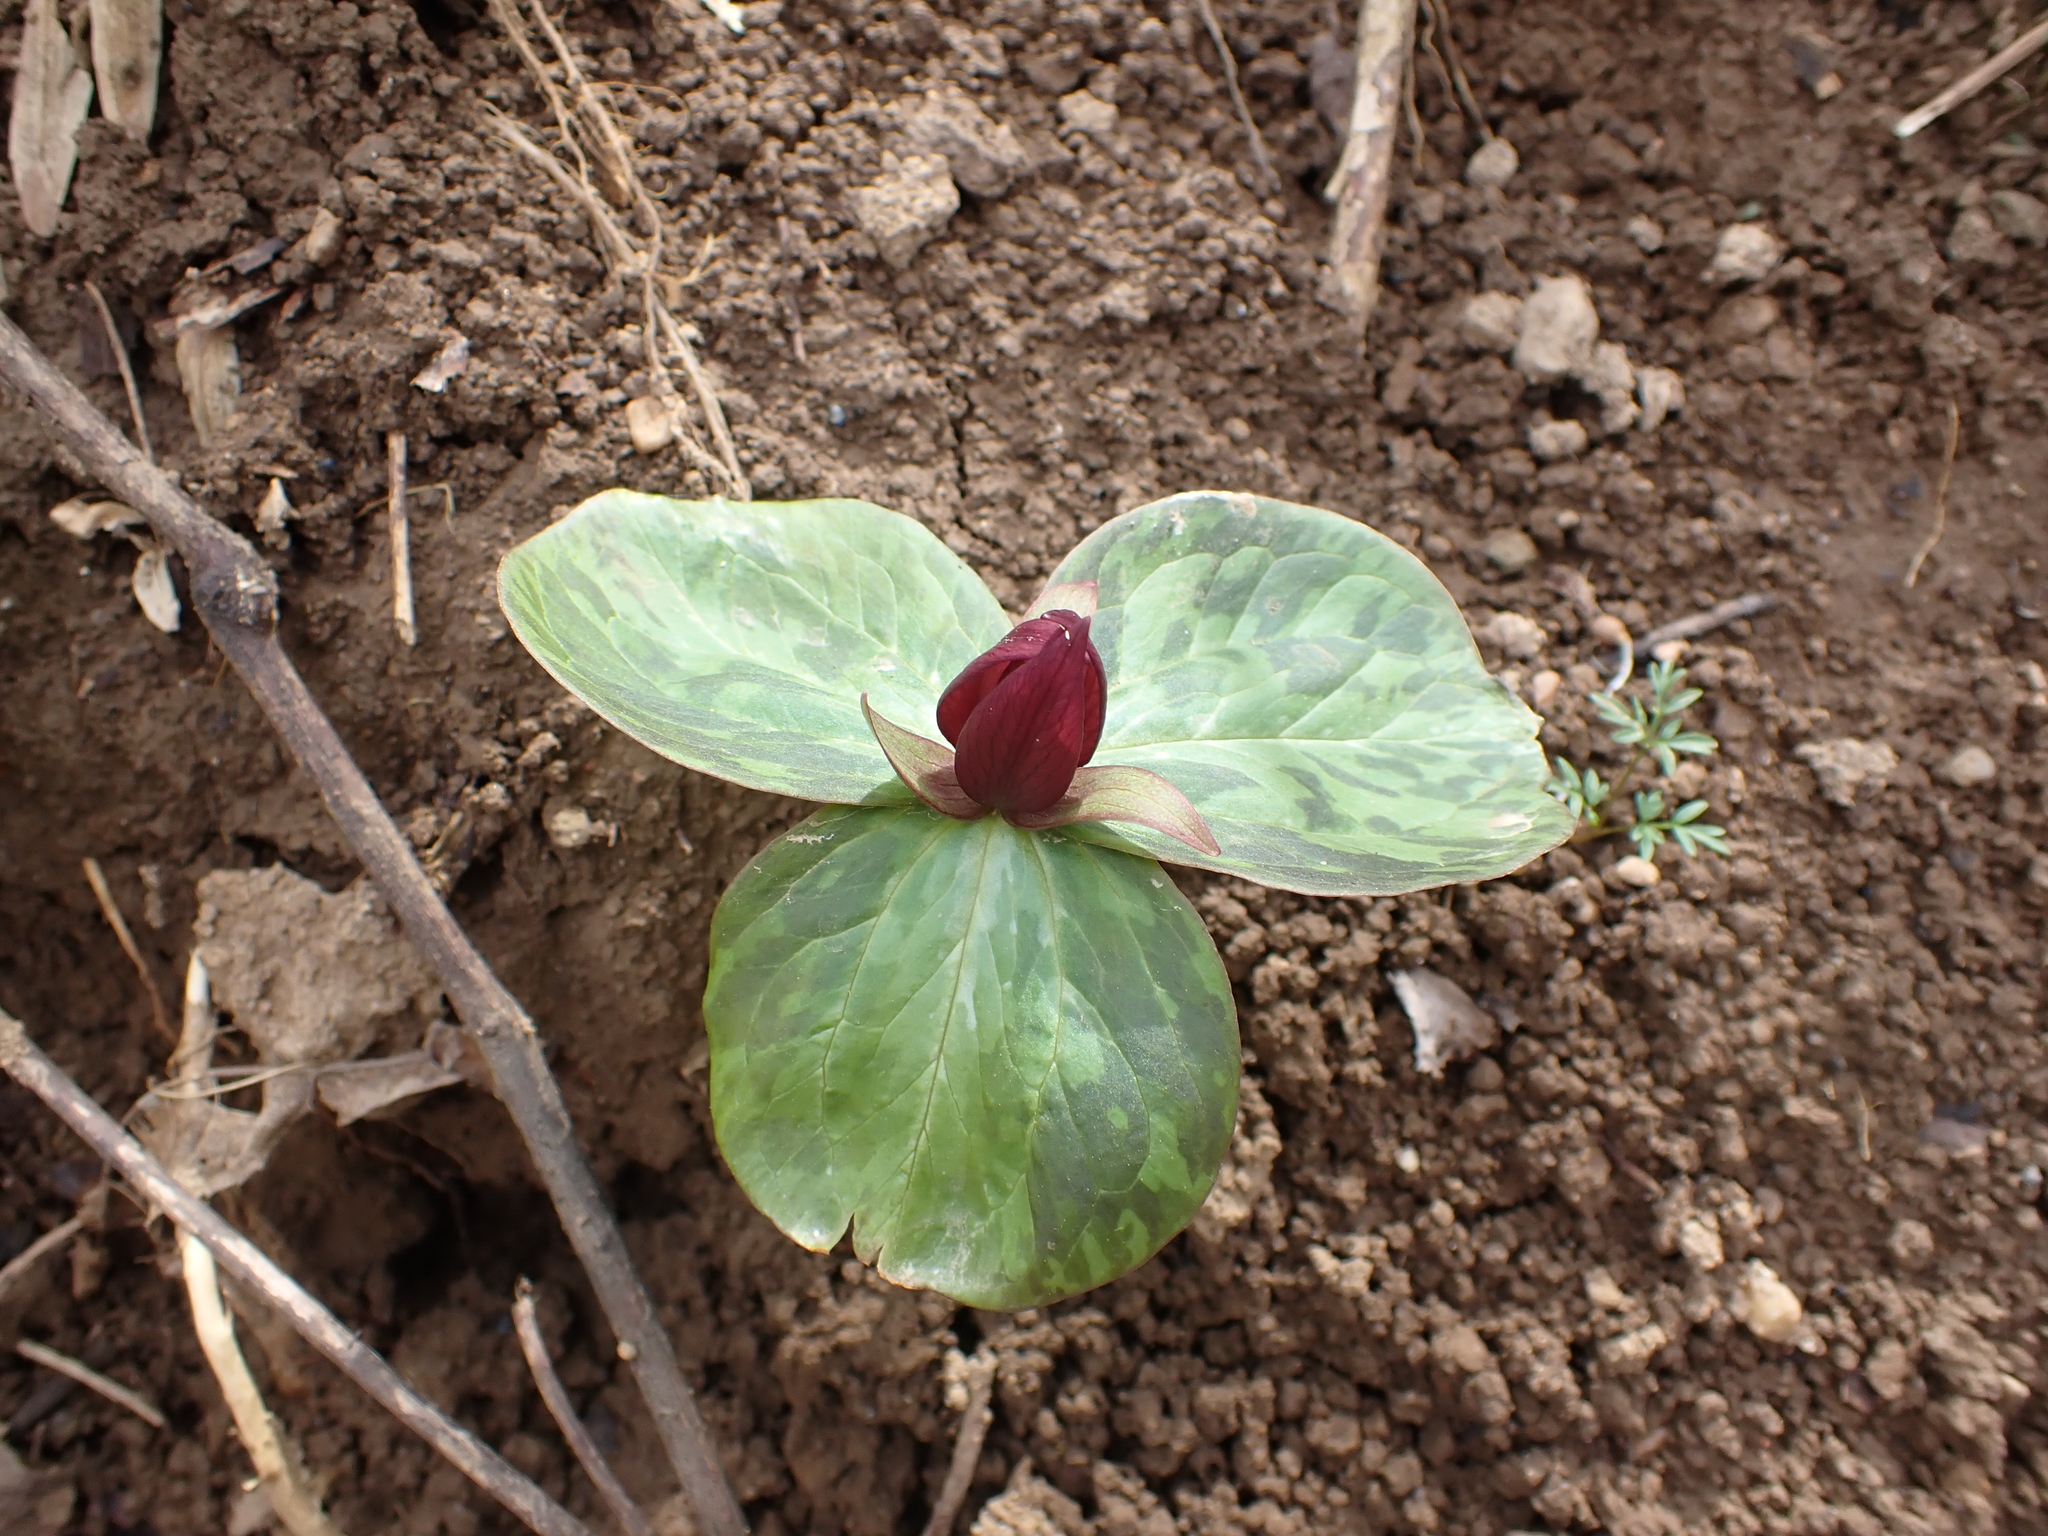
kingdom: Plantae
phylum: Tracheophyta
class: Liliopsida
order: Liliales
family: Melanthiaceae
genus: Trillium
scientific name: Trillium sessile
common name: Sessile trillium
